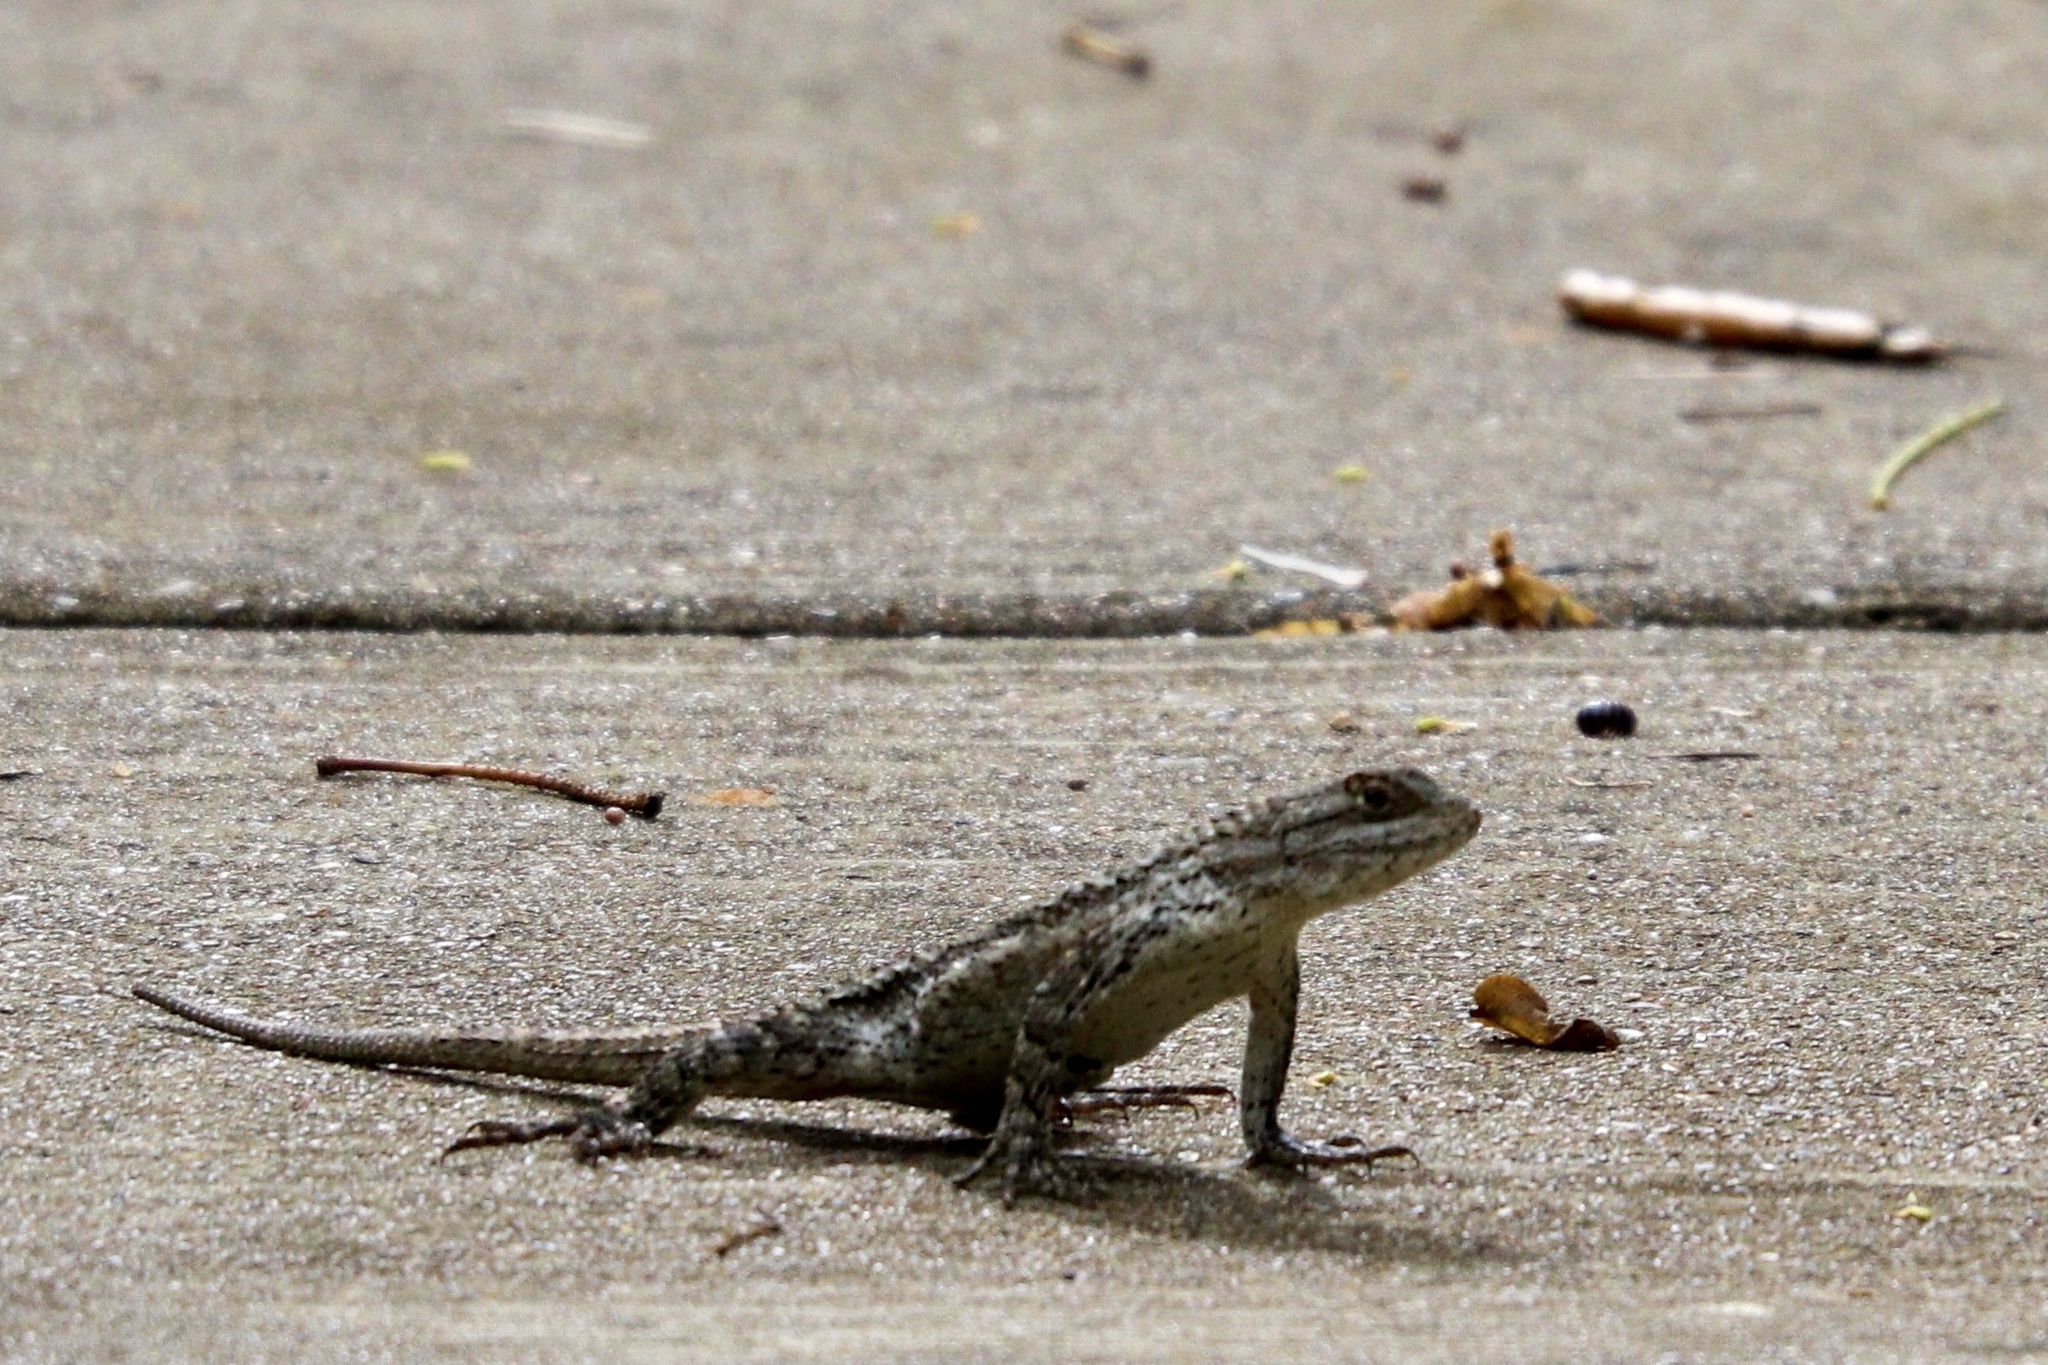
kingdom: Animalia
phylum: Chordata
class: Squamata
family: Phrynosomatidae
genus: Sceloporus
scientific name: Sceloporus olivaceus
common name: Texas spiny lizard
